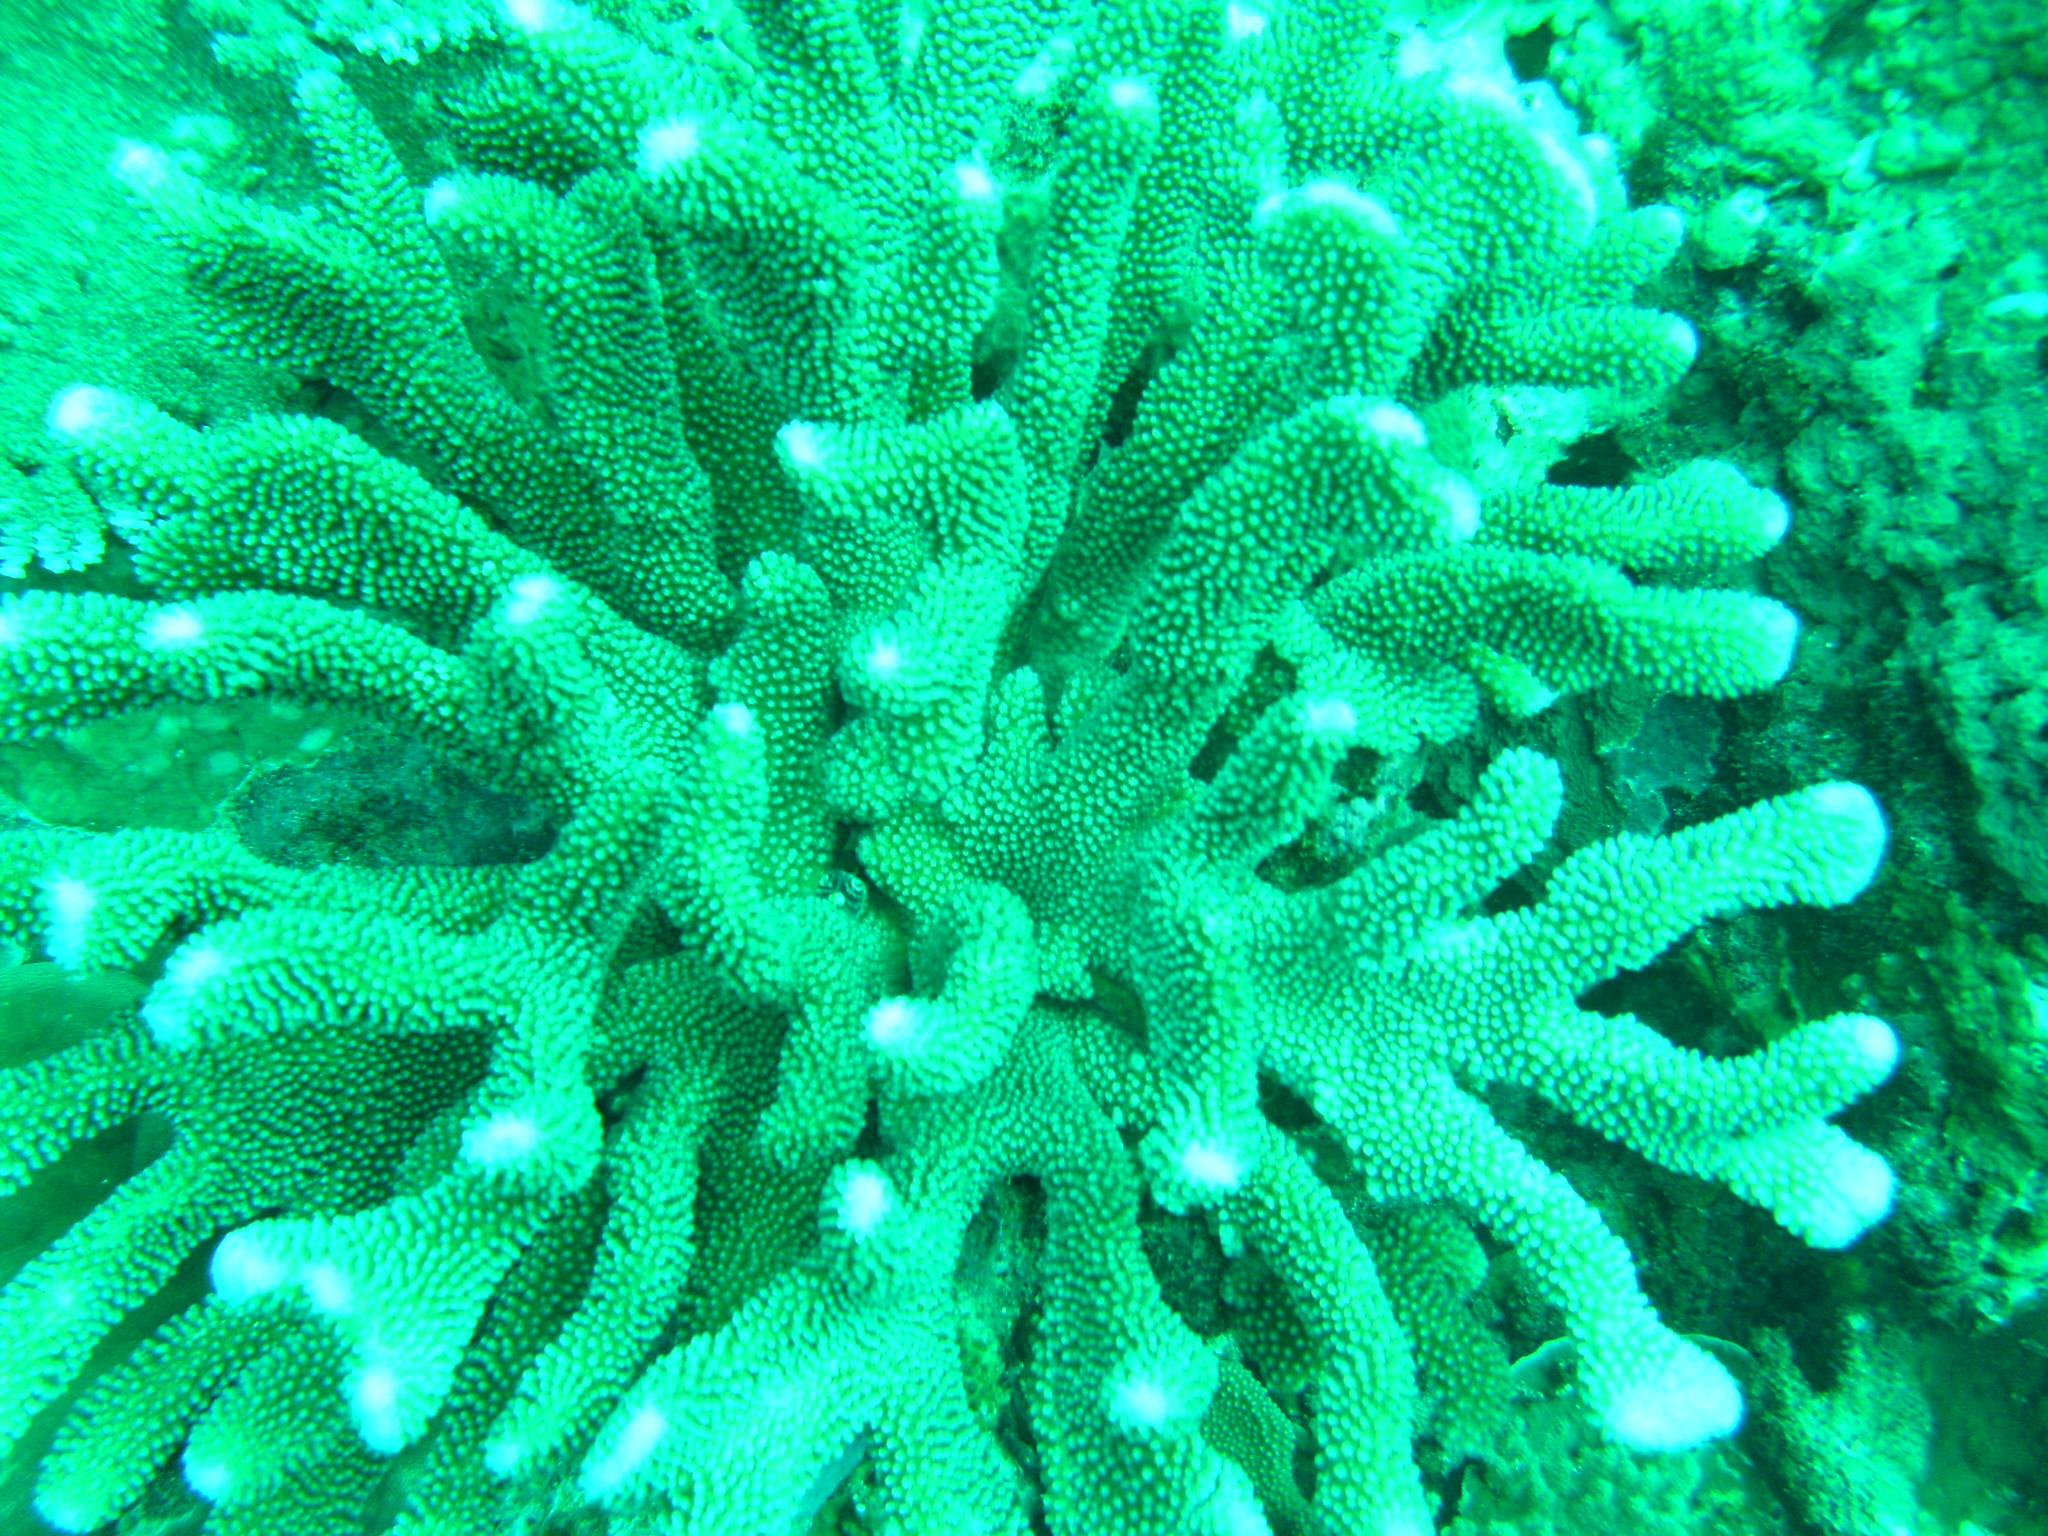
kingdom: Animalia
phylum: Cnidaria
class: Anthozoa
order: Scleractinia
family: Pocilloporidae
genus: Pocillopora
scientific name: Pocillopora grandis
